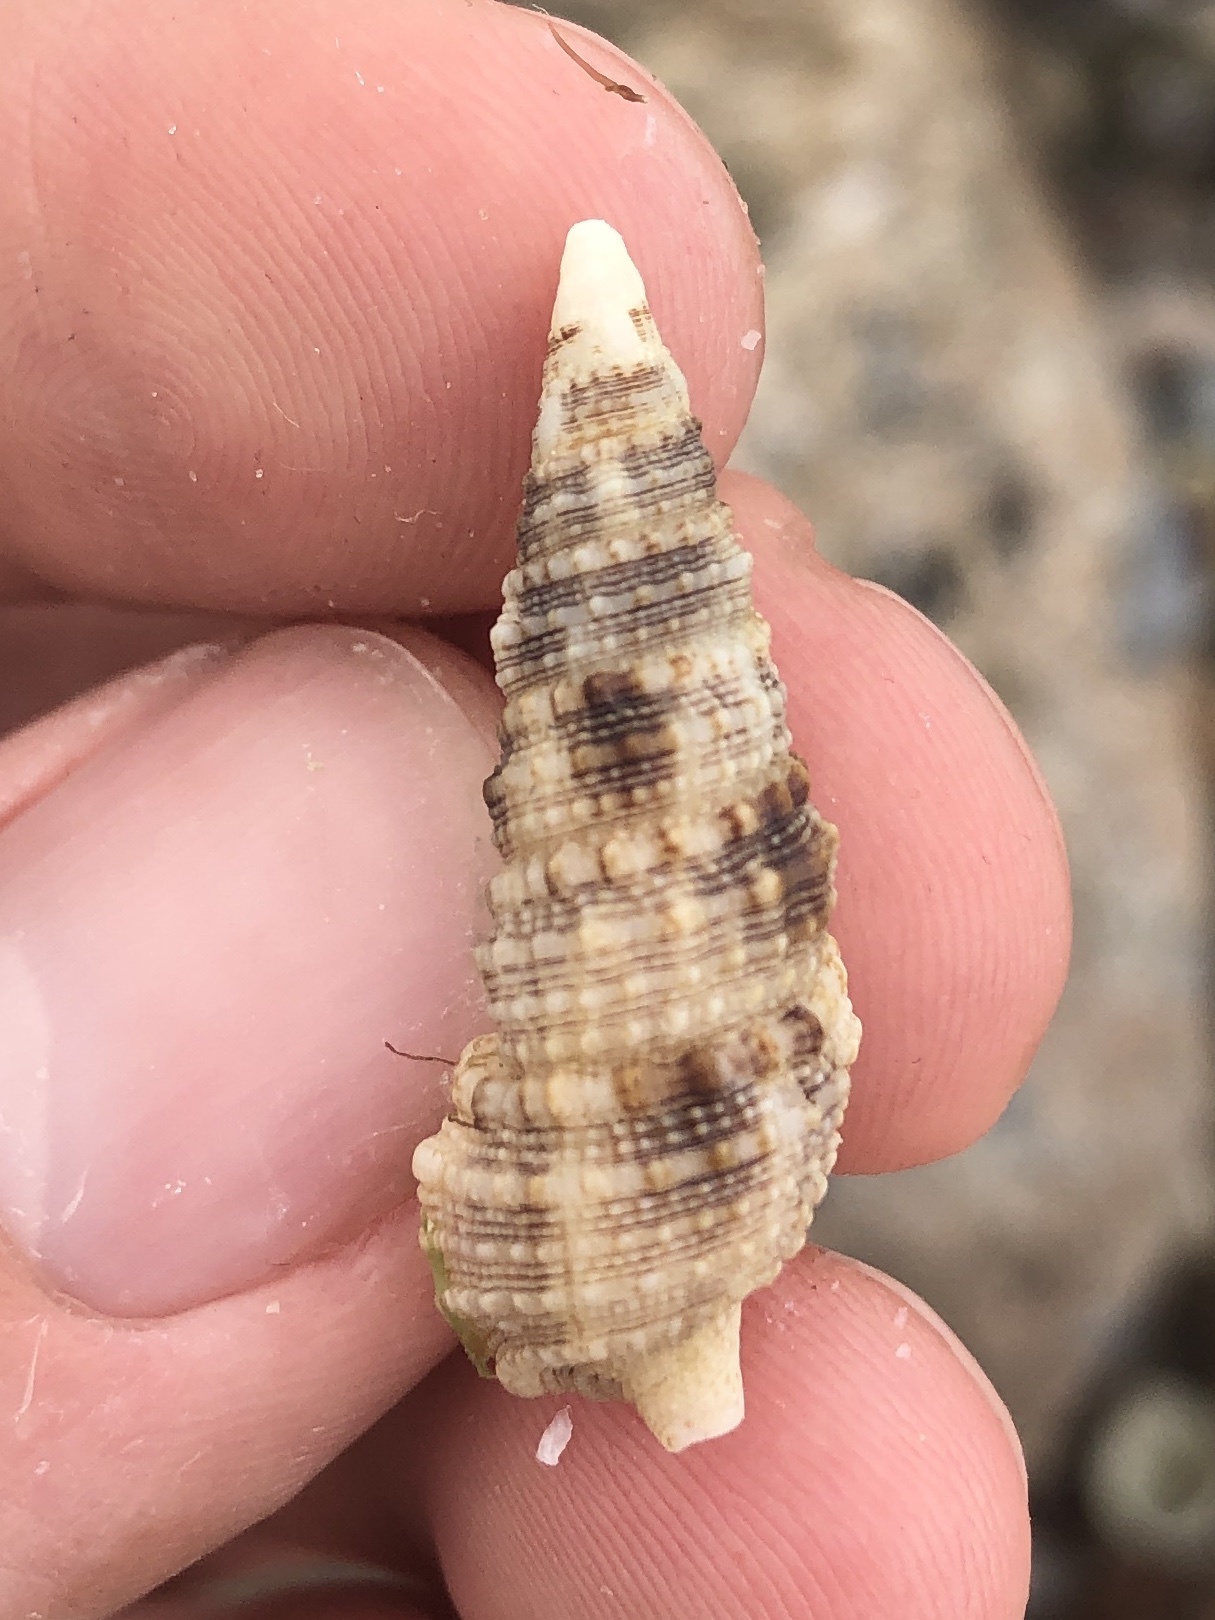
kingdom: Animalia
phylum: Mollusca
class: Gastropoda
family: Cerithiidae
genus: Cerithium
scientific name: Cerithium atratum
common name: Dark cerith
